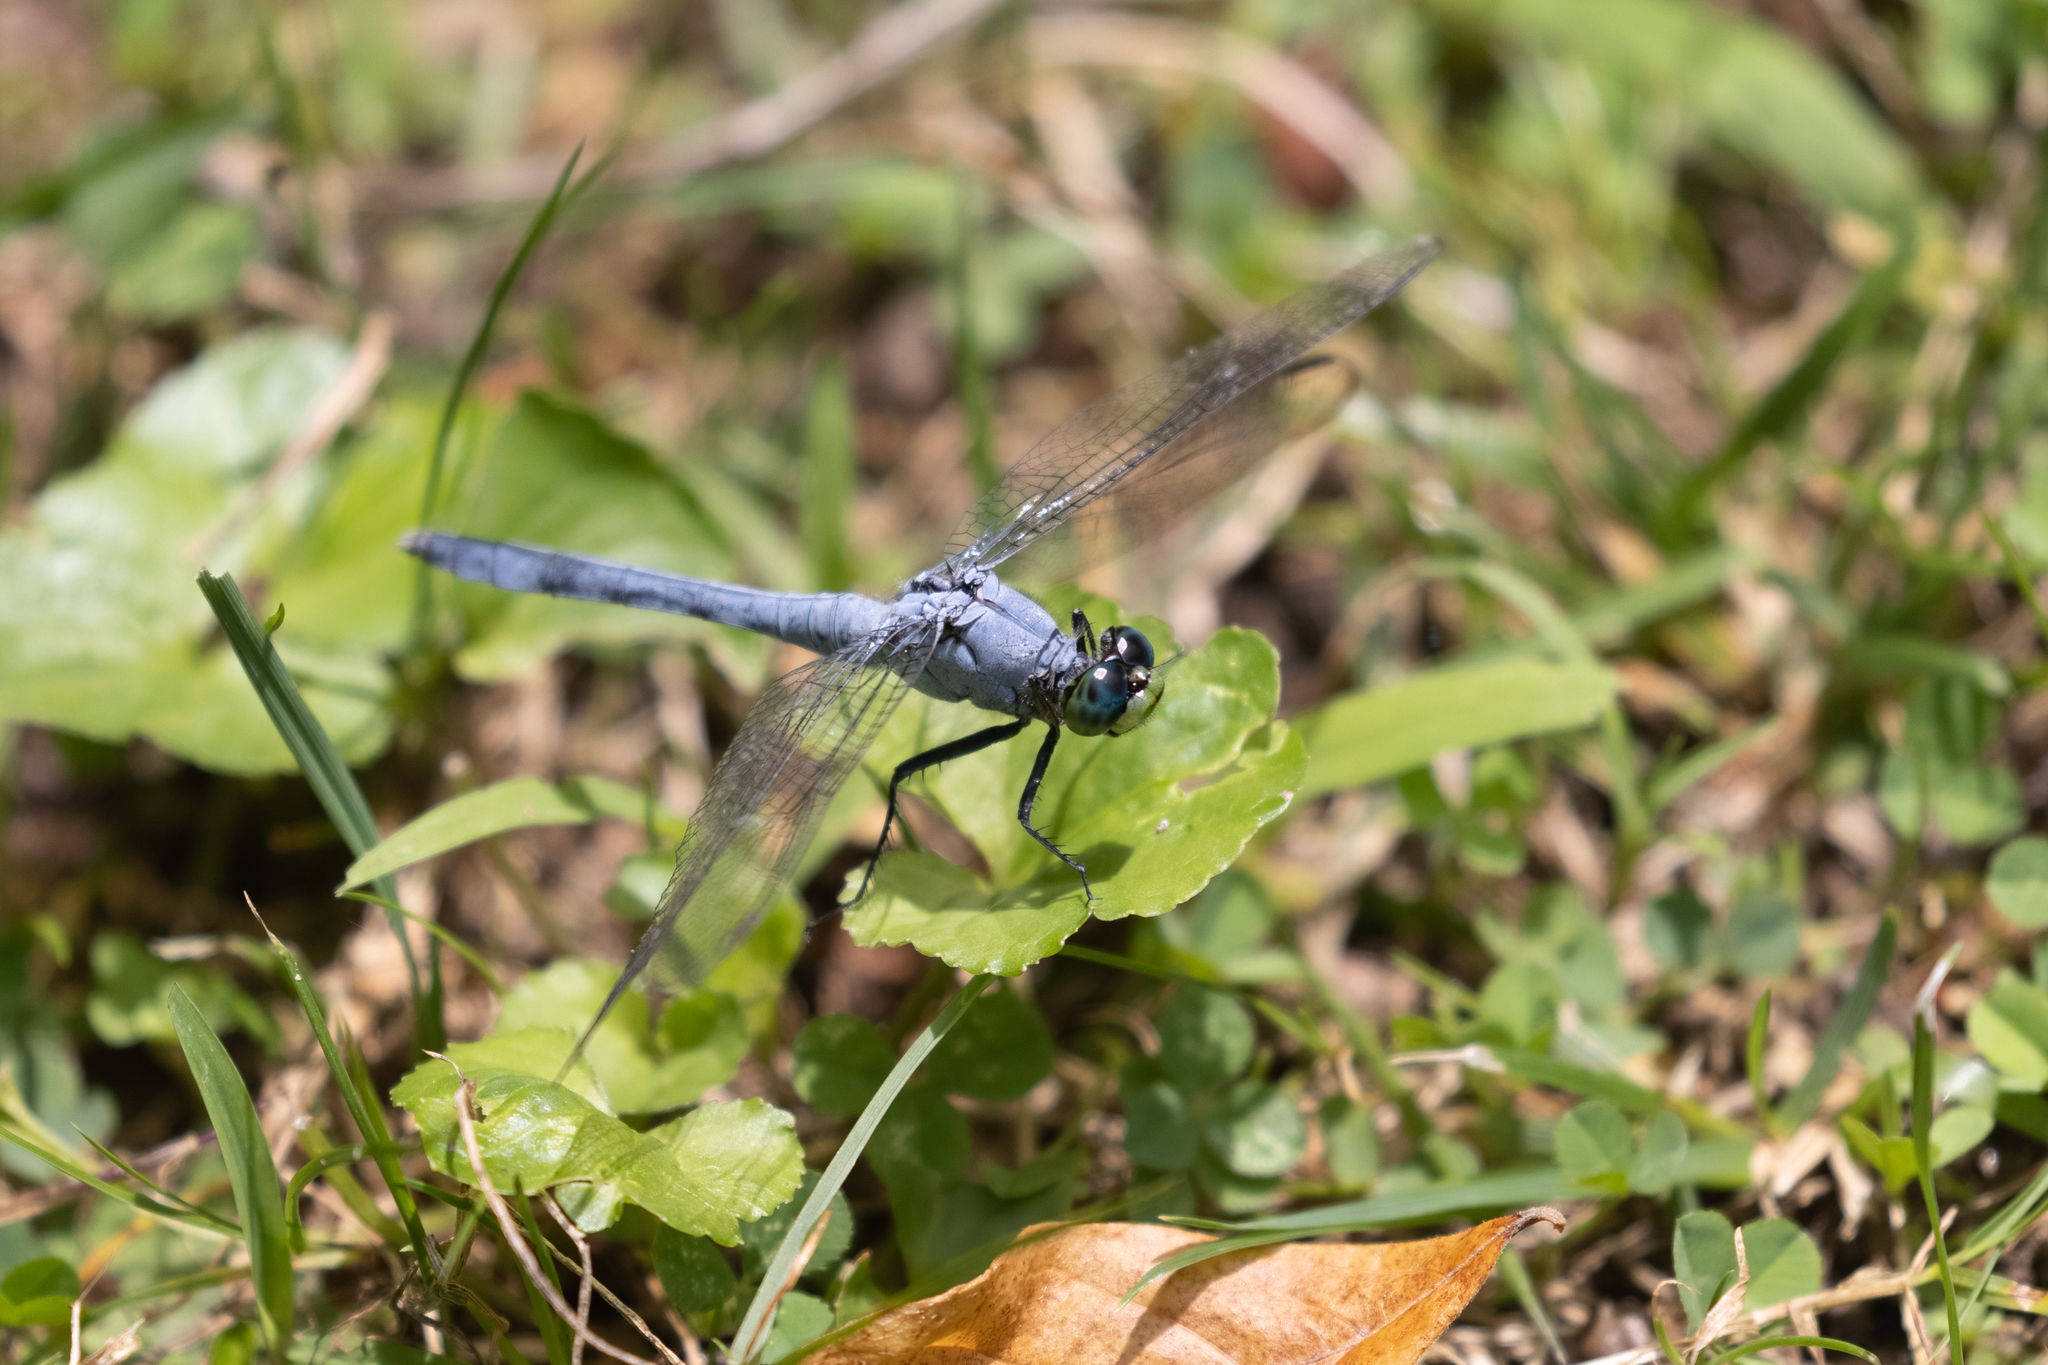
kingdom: Animalia
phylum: Arthropoda
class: Insecta
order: Odonata
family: Libellulidae
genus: Erythemis
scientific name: Erythemis simplicicollis
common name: Eastern pondhawk
